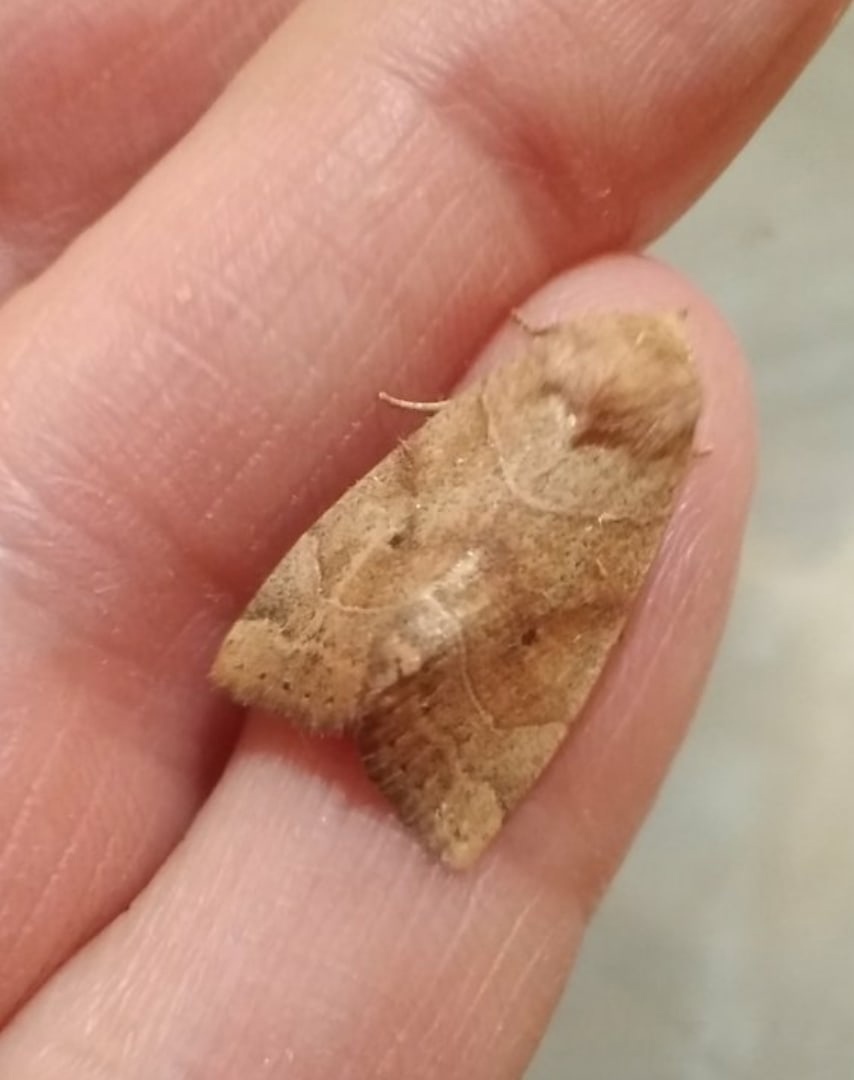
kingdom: Animalia
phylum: Arthropoda
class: Insecta
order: Lepidoptera
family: Noctuidae
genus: Cosmia
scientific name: Cosmia trapezina
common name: Dun-bar
